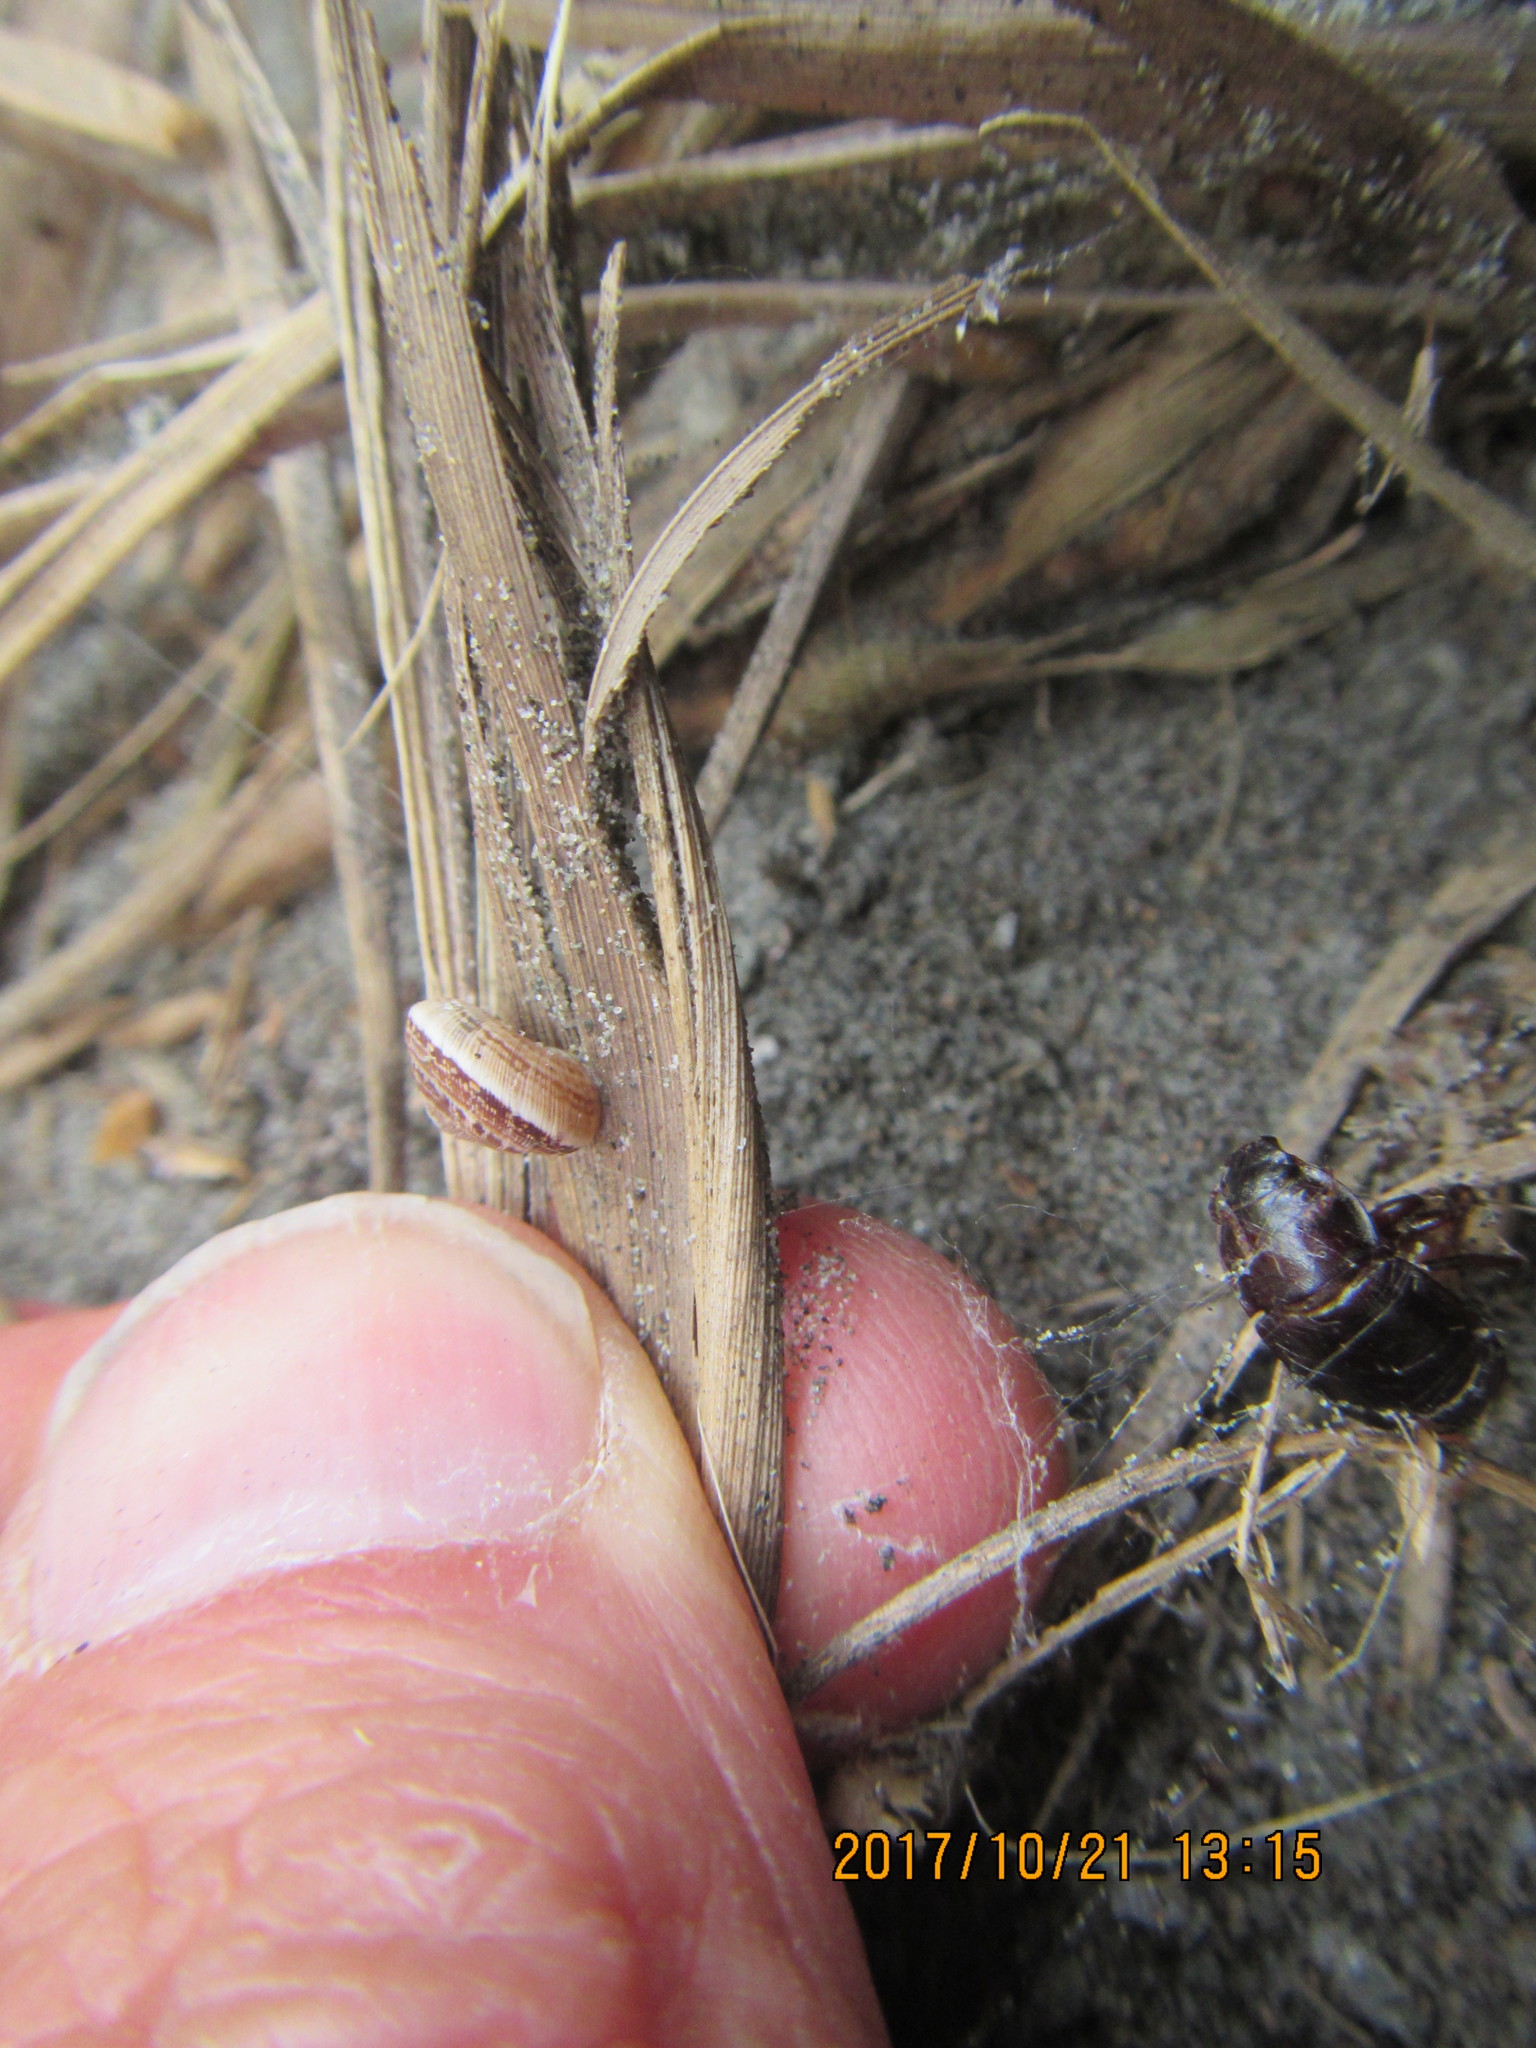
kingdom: Animalia
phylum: Mollusca
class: Gastropoda
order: Stylommatophora
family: Geomitridae
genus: Xeroplexa
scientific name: Xeroplexa intersecta
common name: Wrinkled snail
